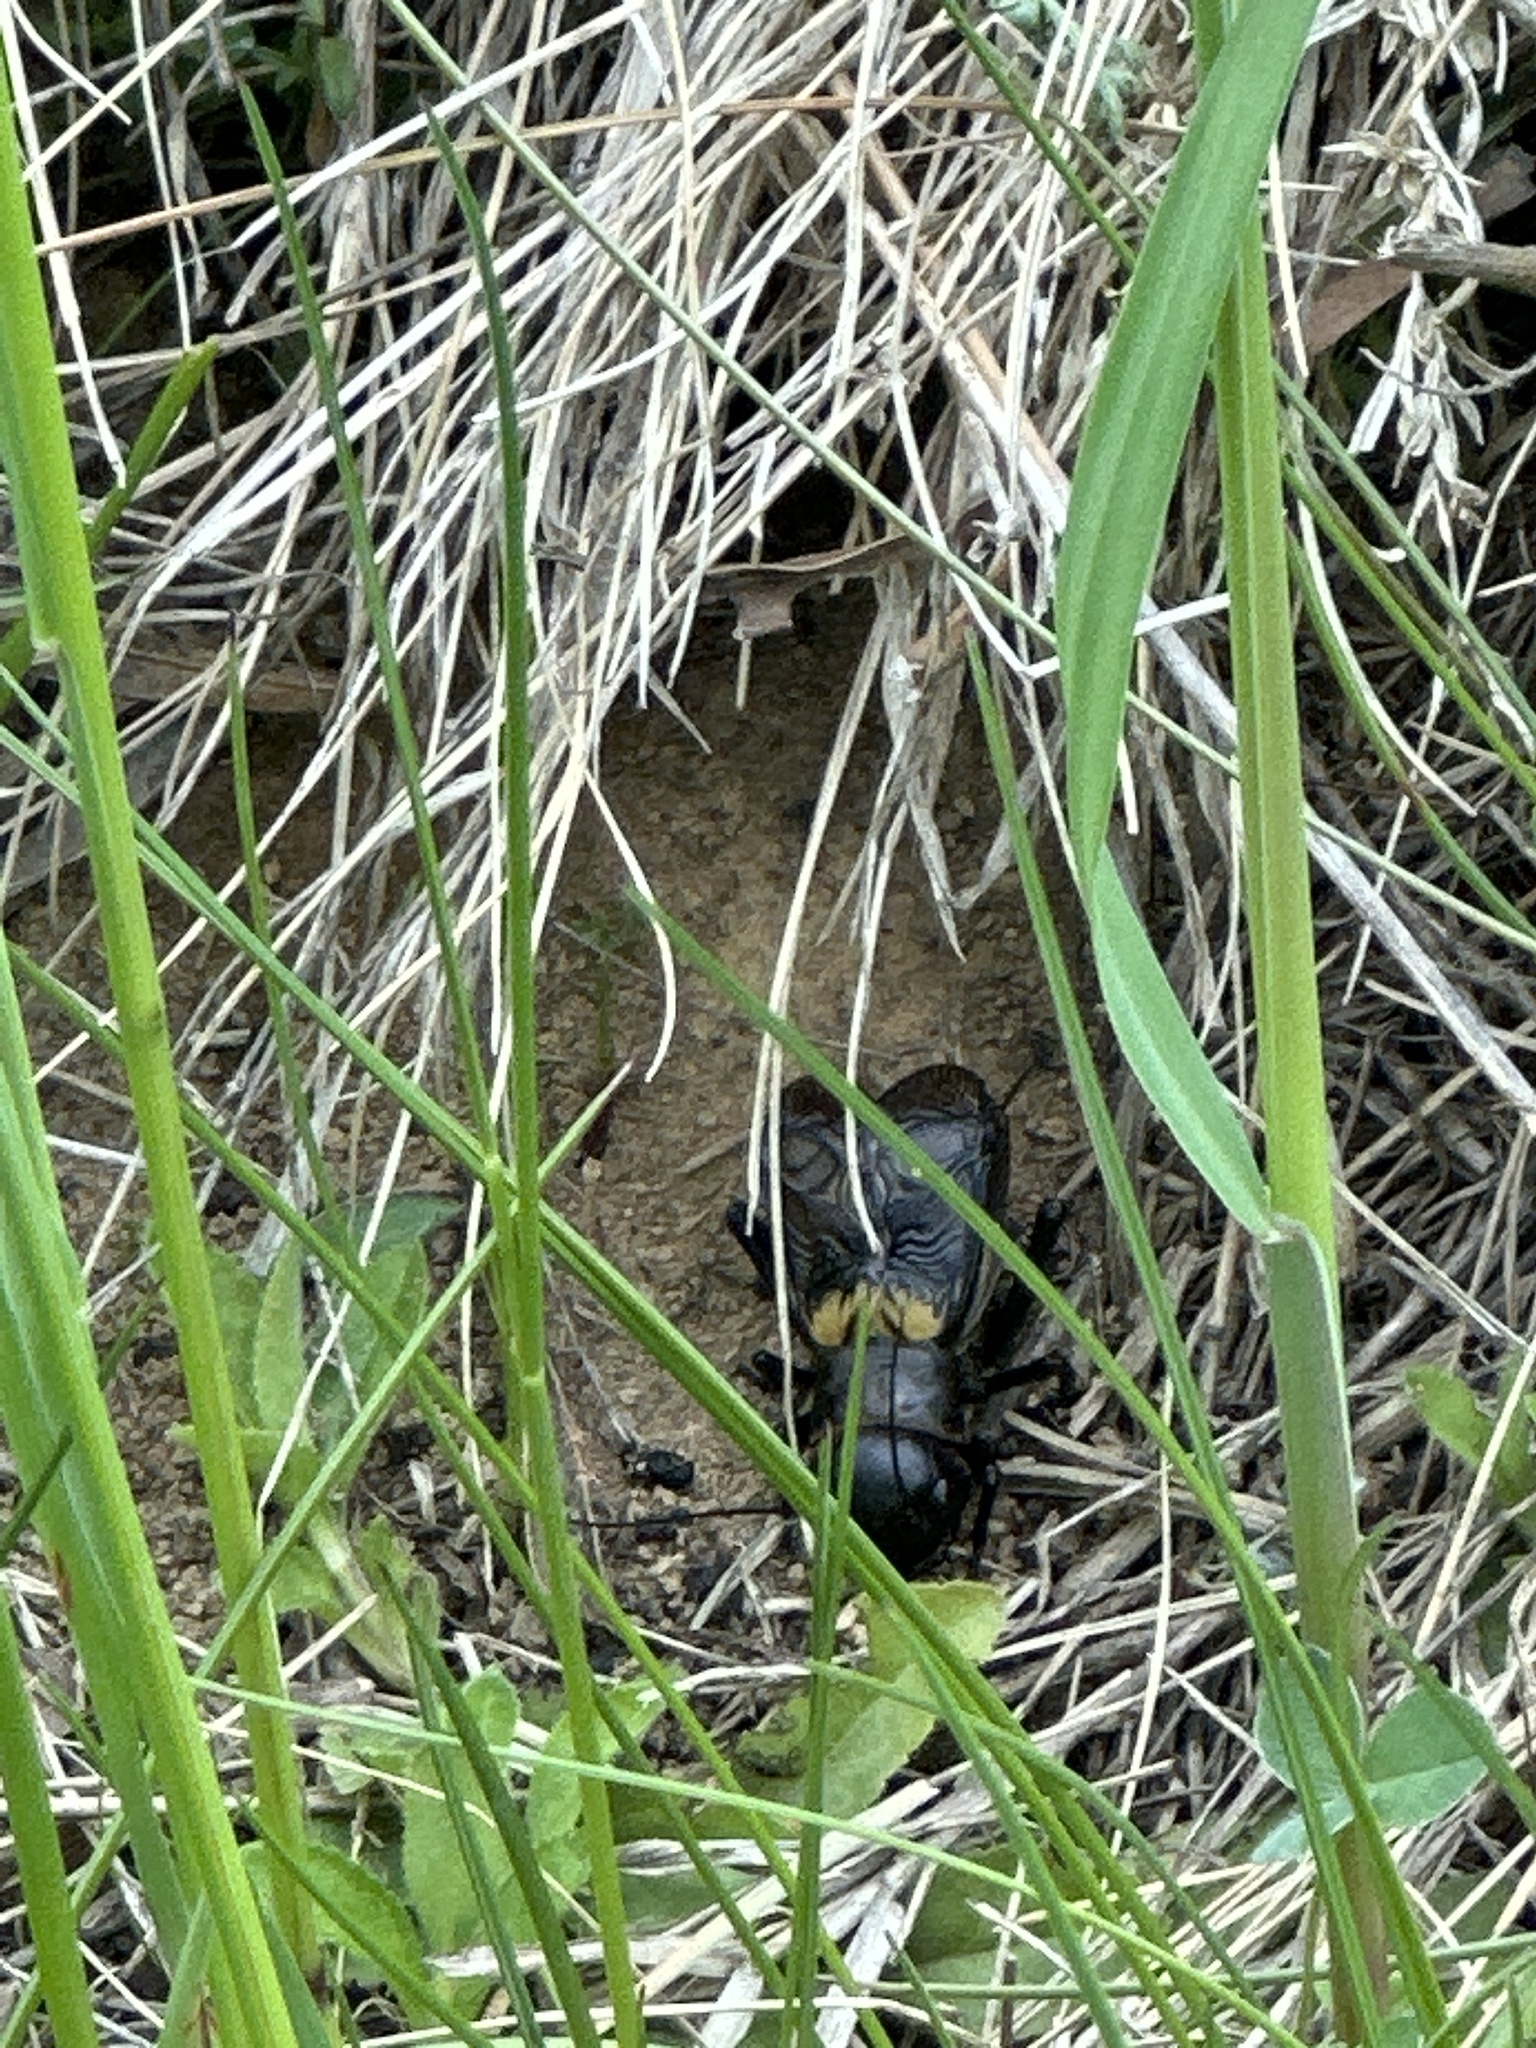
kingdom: Animalia
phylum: Arthropoda
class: Insecta
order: Orthoptera
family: Gryllidae
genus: Gryllus
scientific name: Gryllus campestris
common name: Field cricket
